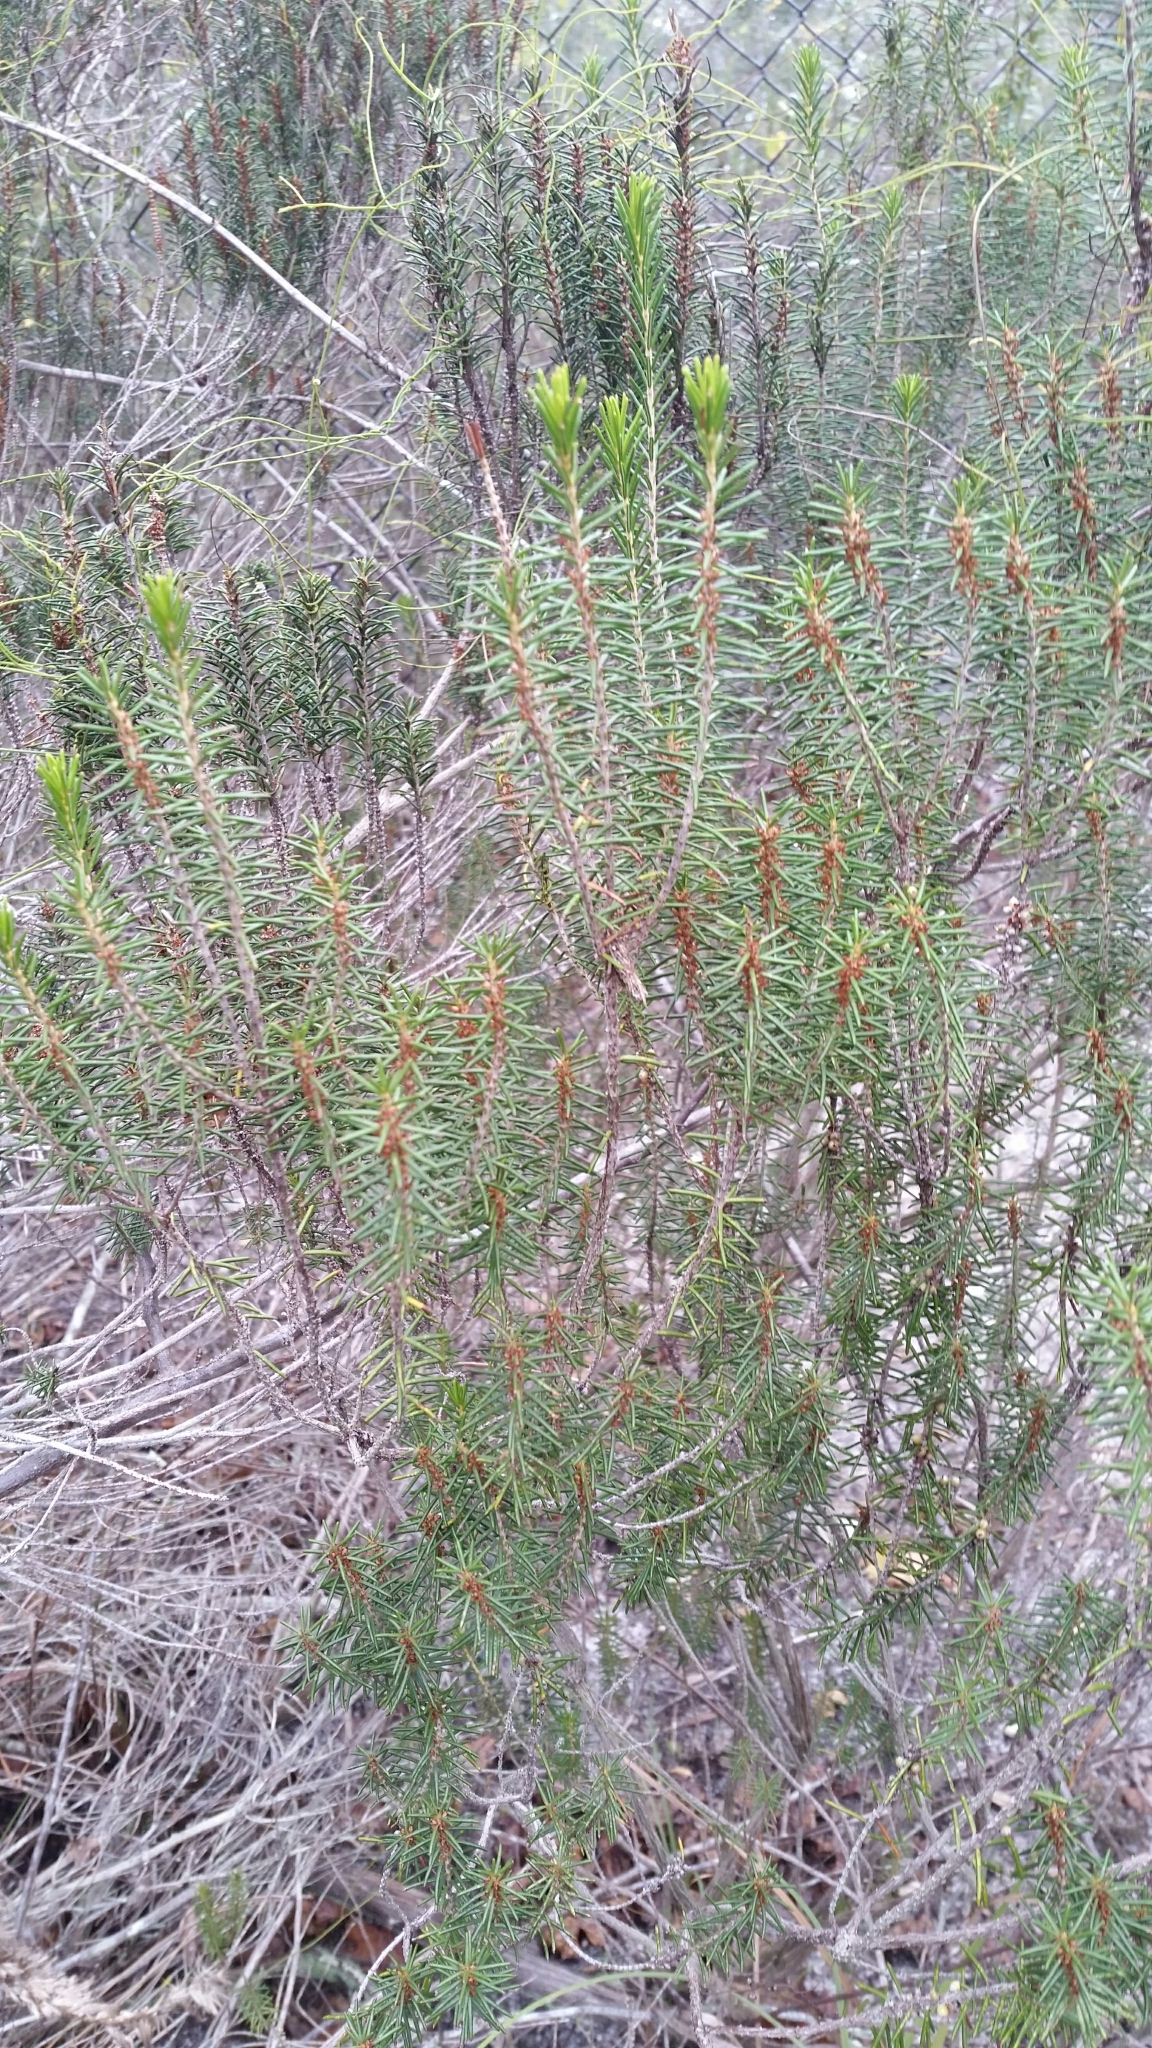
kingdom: Plantae
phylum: Tracheophyta
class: Magnoliopsida
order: Ericales
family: Ericaceae
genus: Ceratiola
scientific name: Ceratiola ericoides
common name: Sandhill-rosemary
